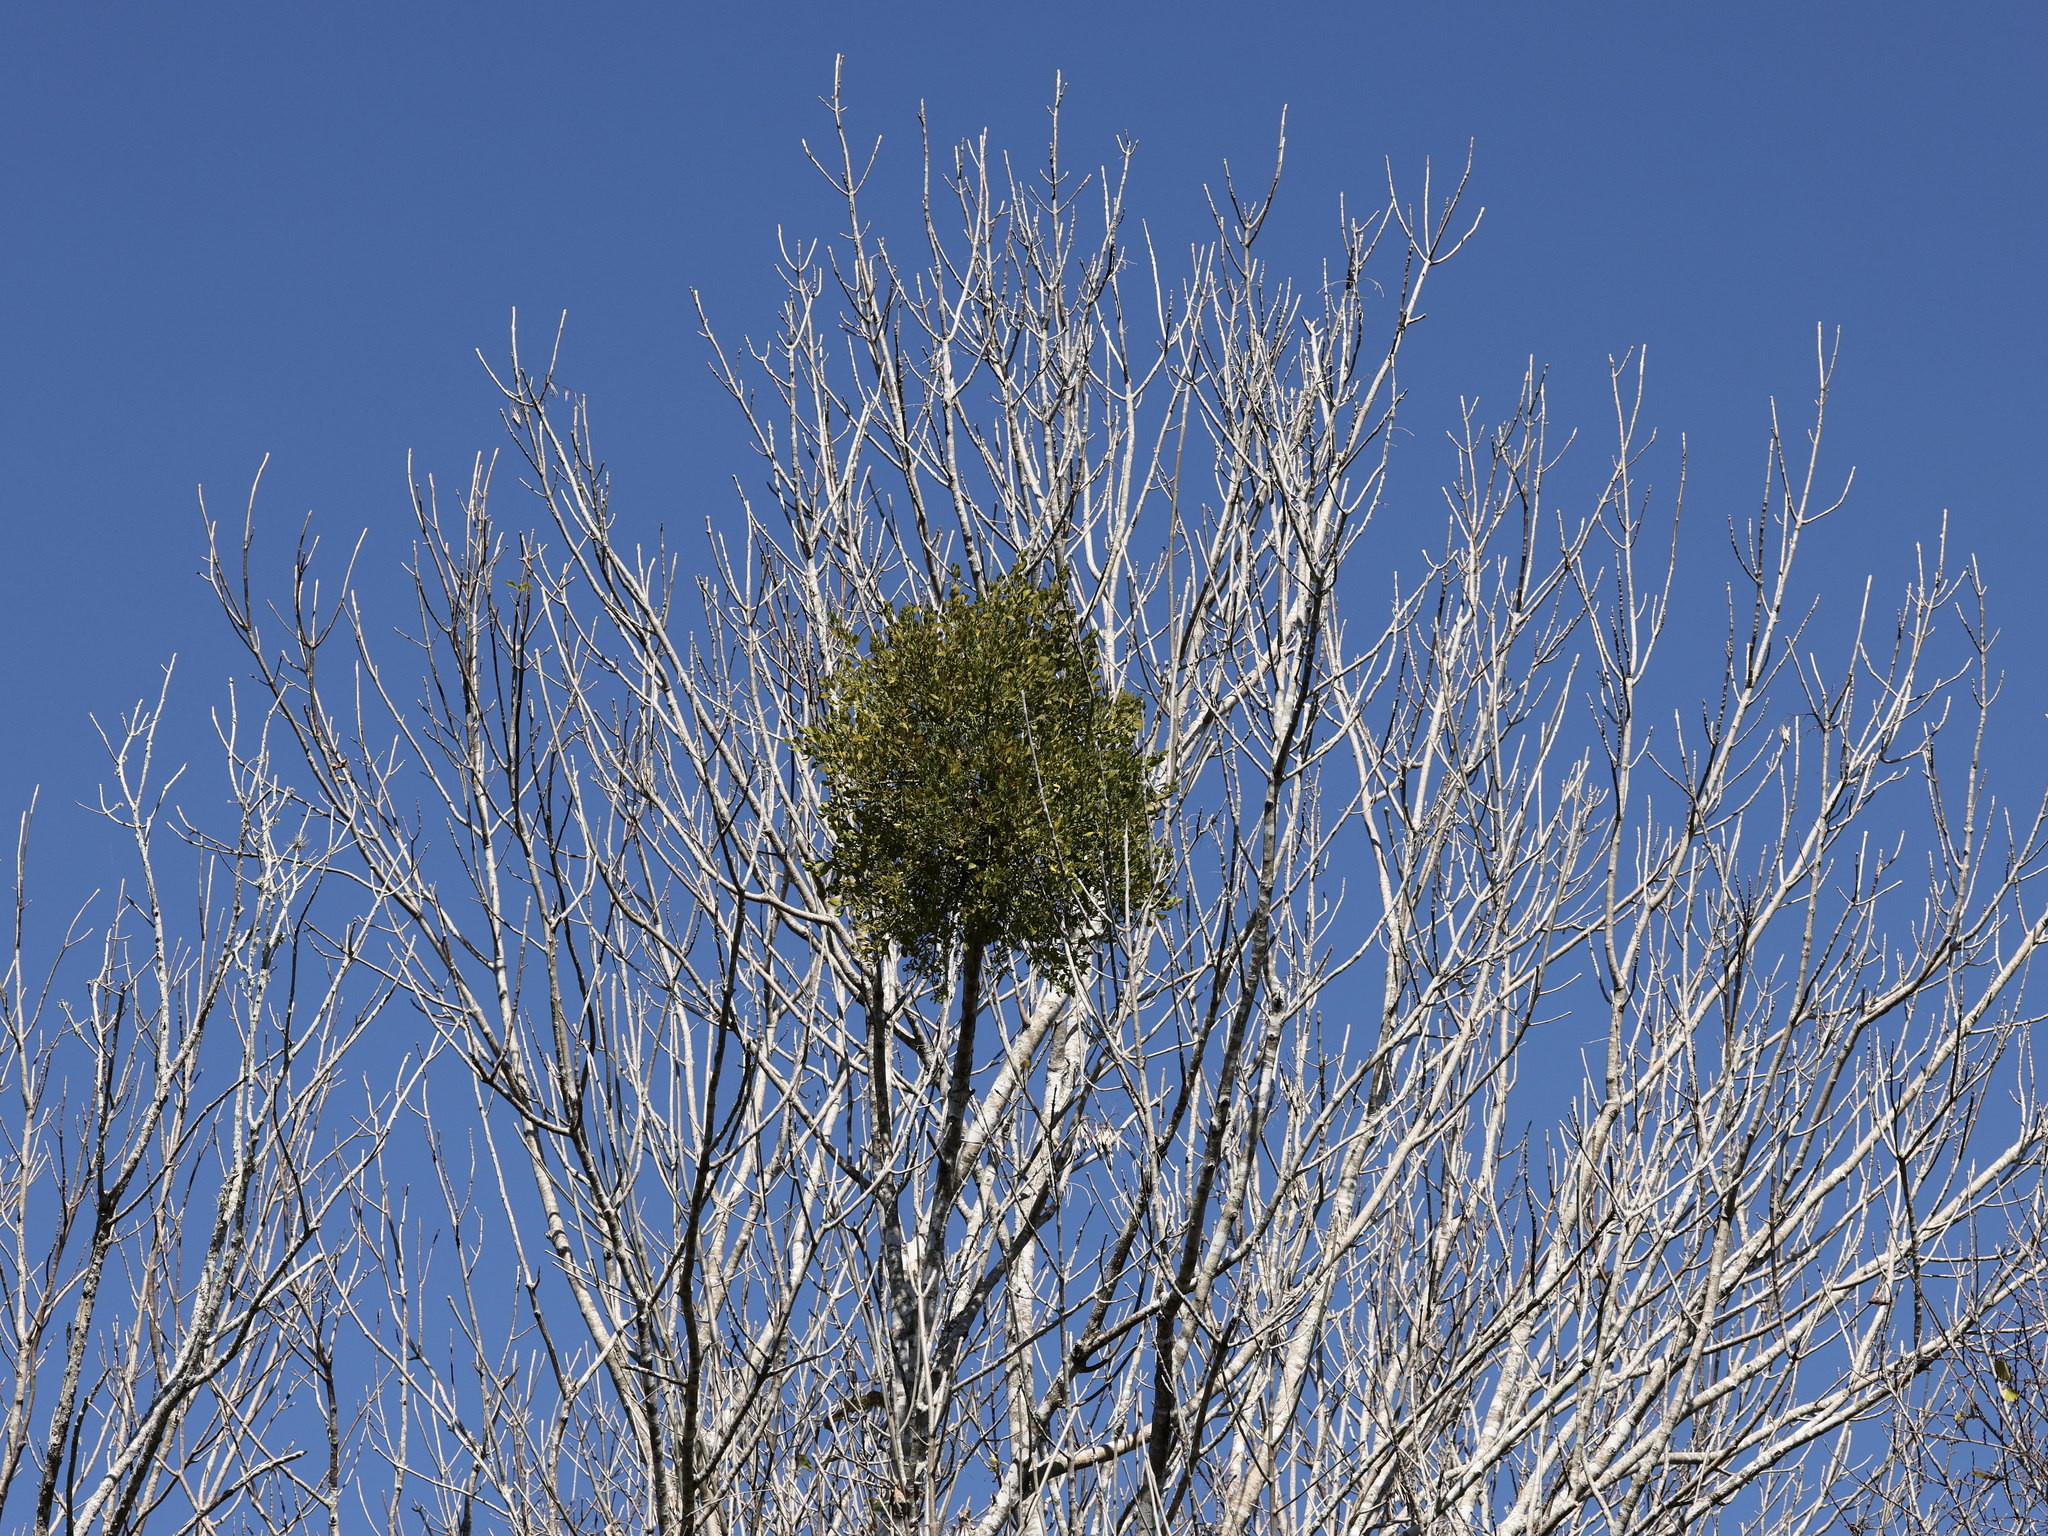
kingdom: Plantae
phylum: Tracheophyta
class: Magnoliopsida
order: Santalales
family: Viscaceae
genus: Phoradendron
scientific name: Phoradendron leucarpum
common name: Pacific mistletoe
